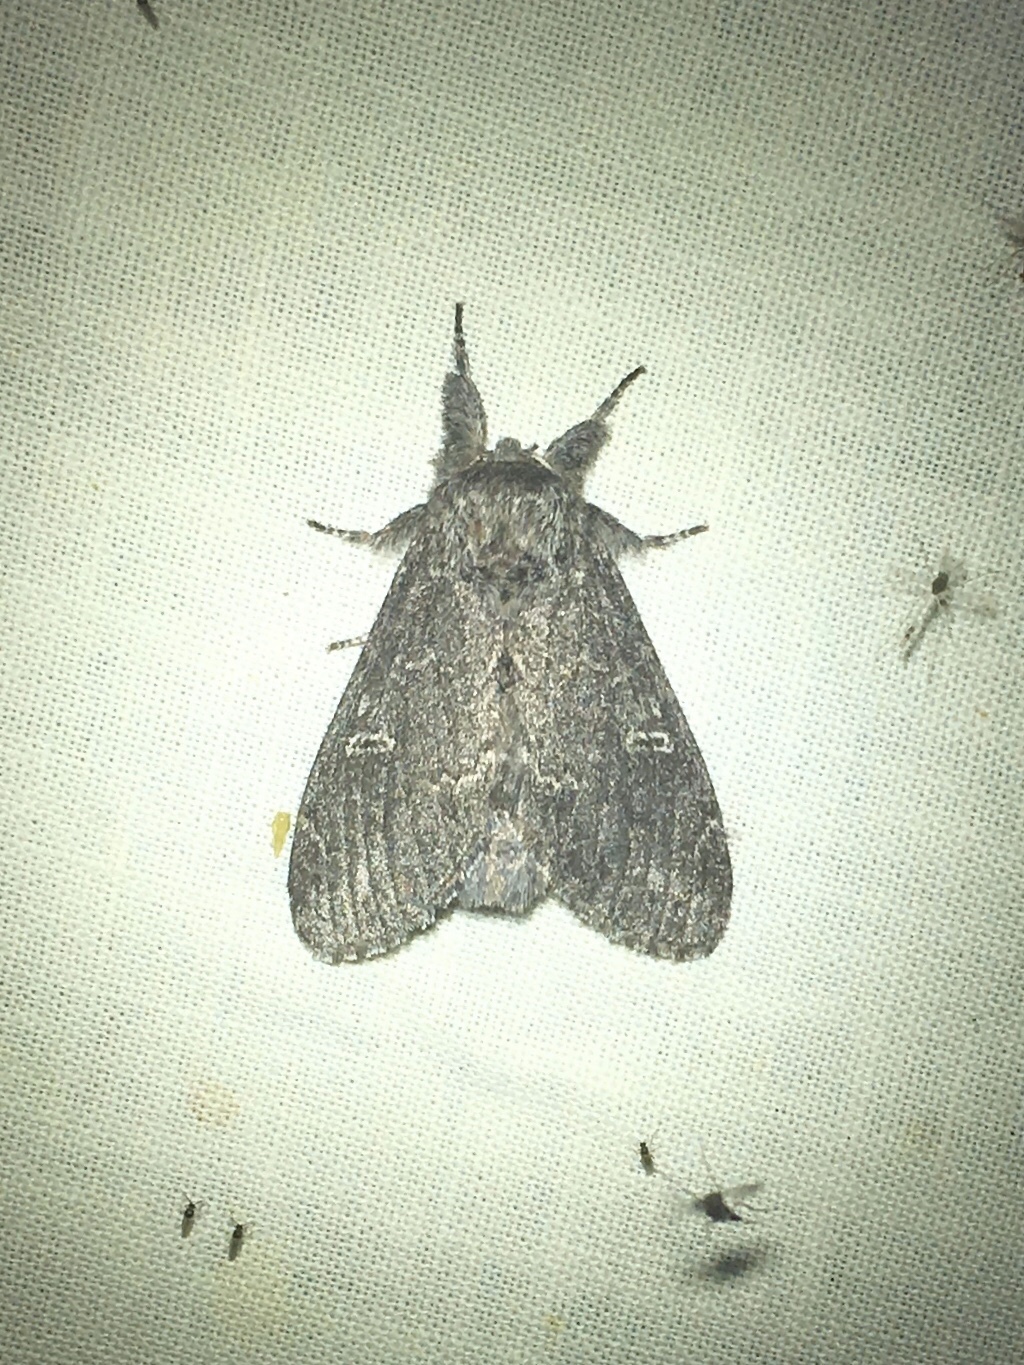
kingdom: Animalia
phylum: Arthropoda
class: Insecta
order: Lepidoptera
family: Notodontidae
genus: Notodonta
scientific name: Notodonta torva
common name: Large dark prominent
